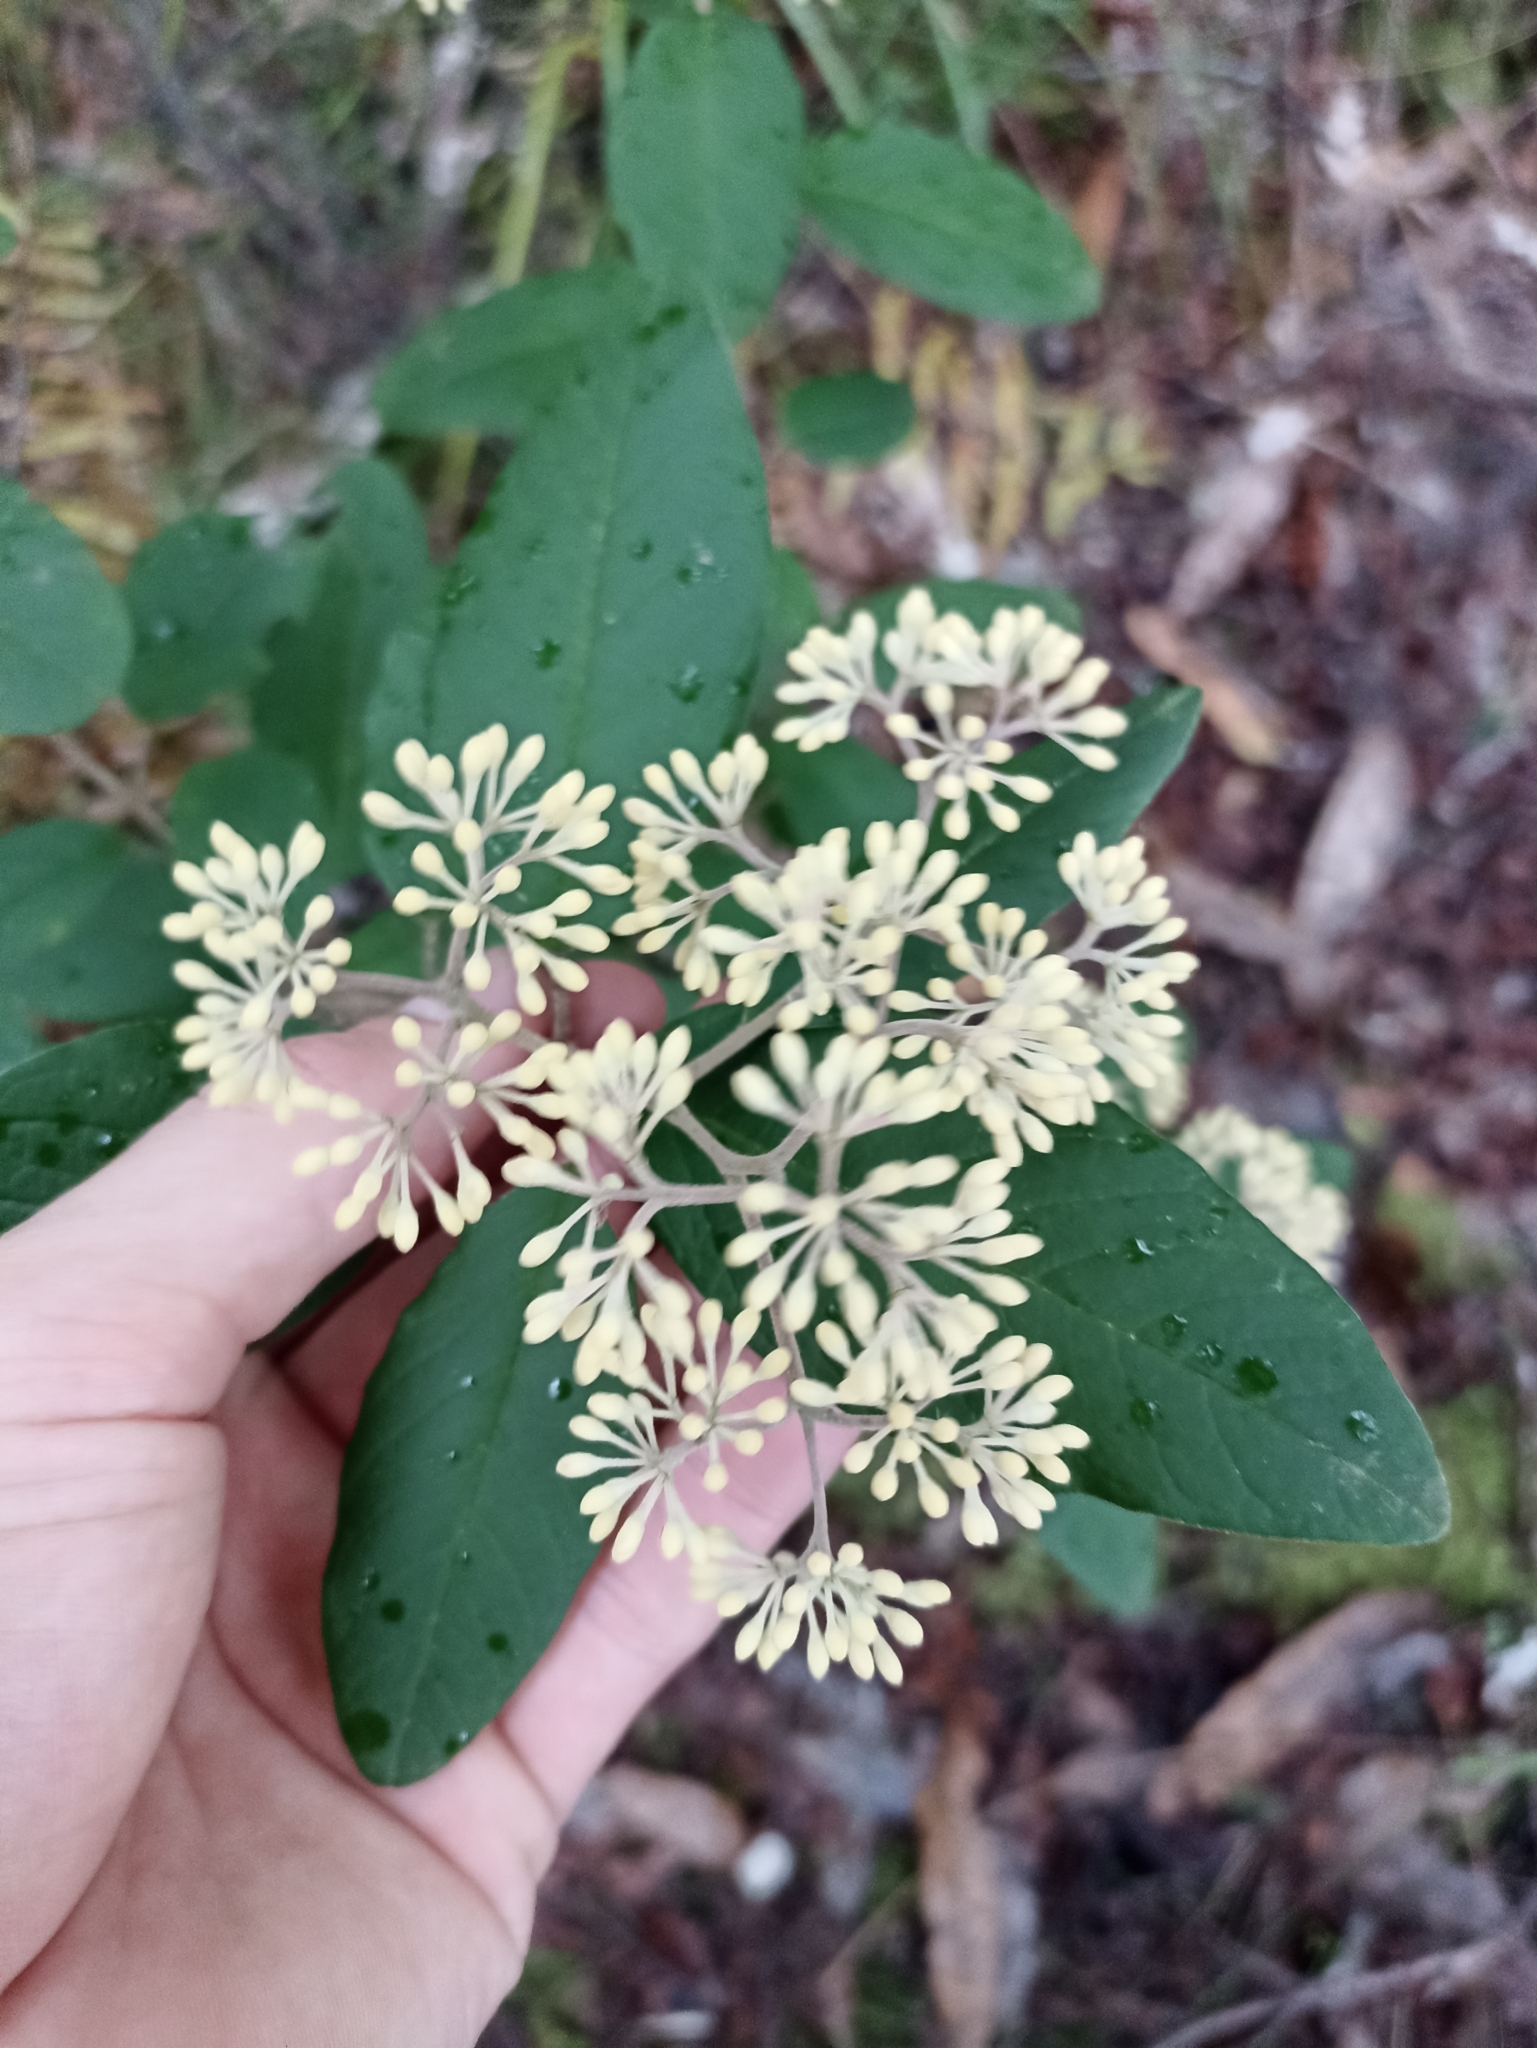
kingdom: Plantae
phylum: Tracheophyta
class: Magnoliopsida
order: Rosales
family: Rhamnaceae
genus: Pomaderris
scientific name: Pomaderris kumeraho
